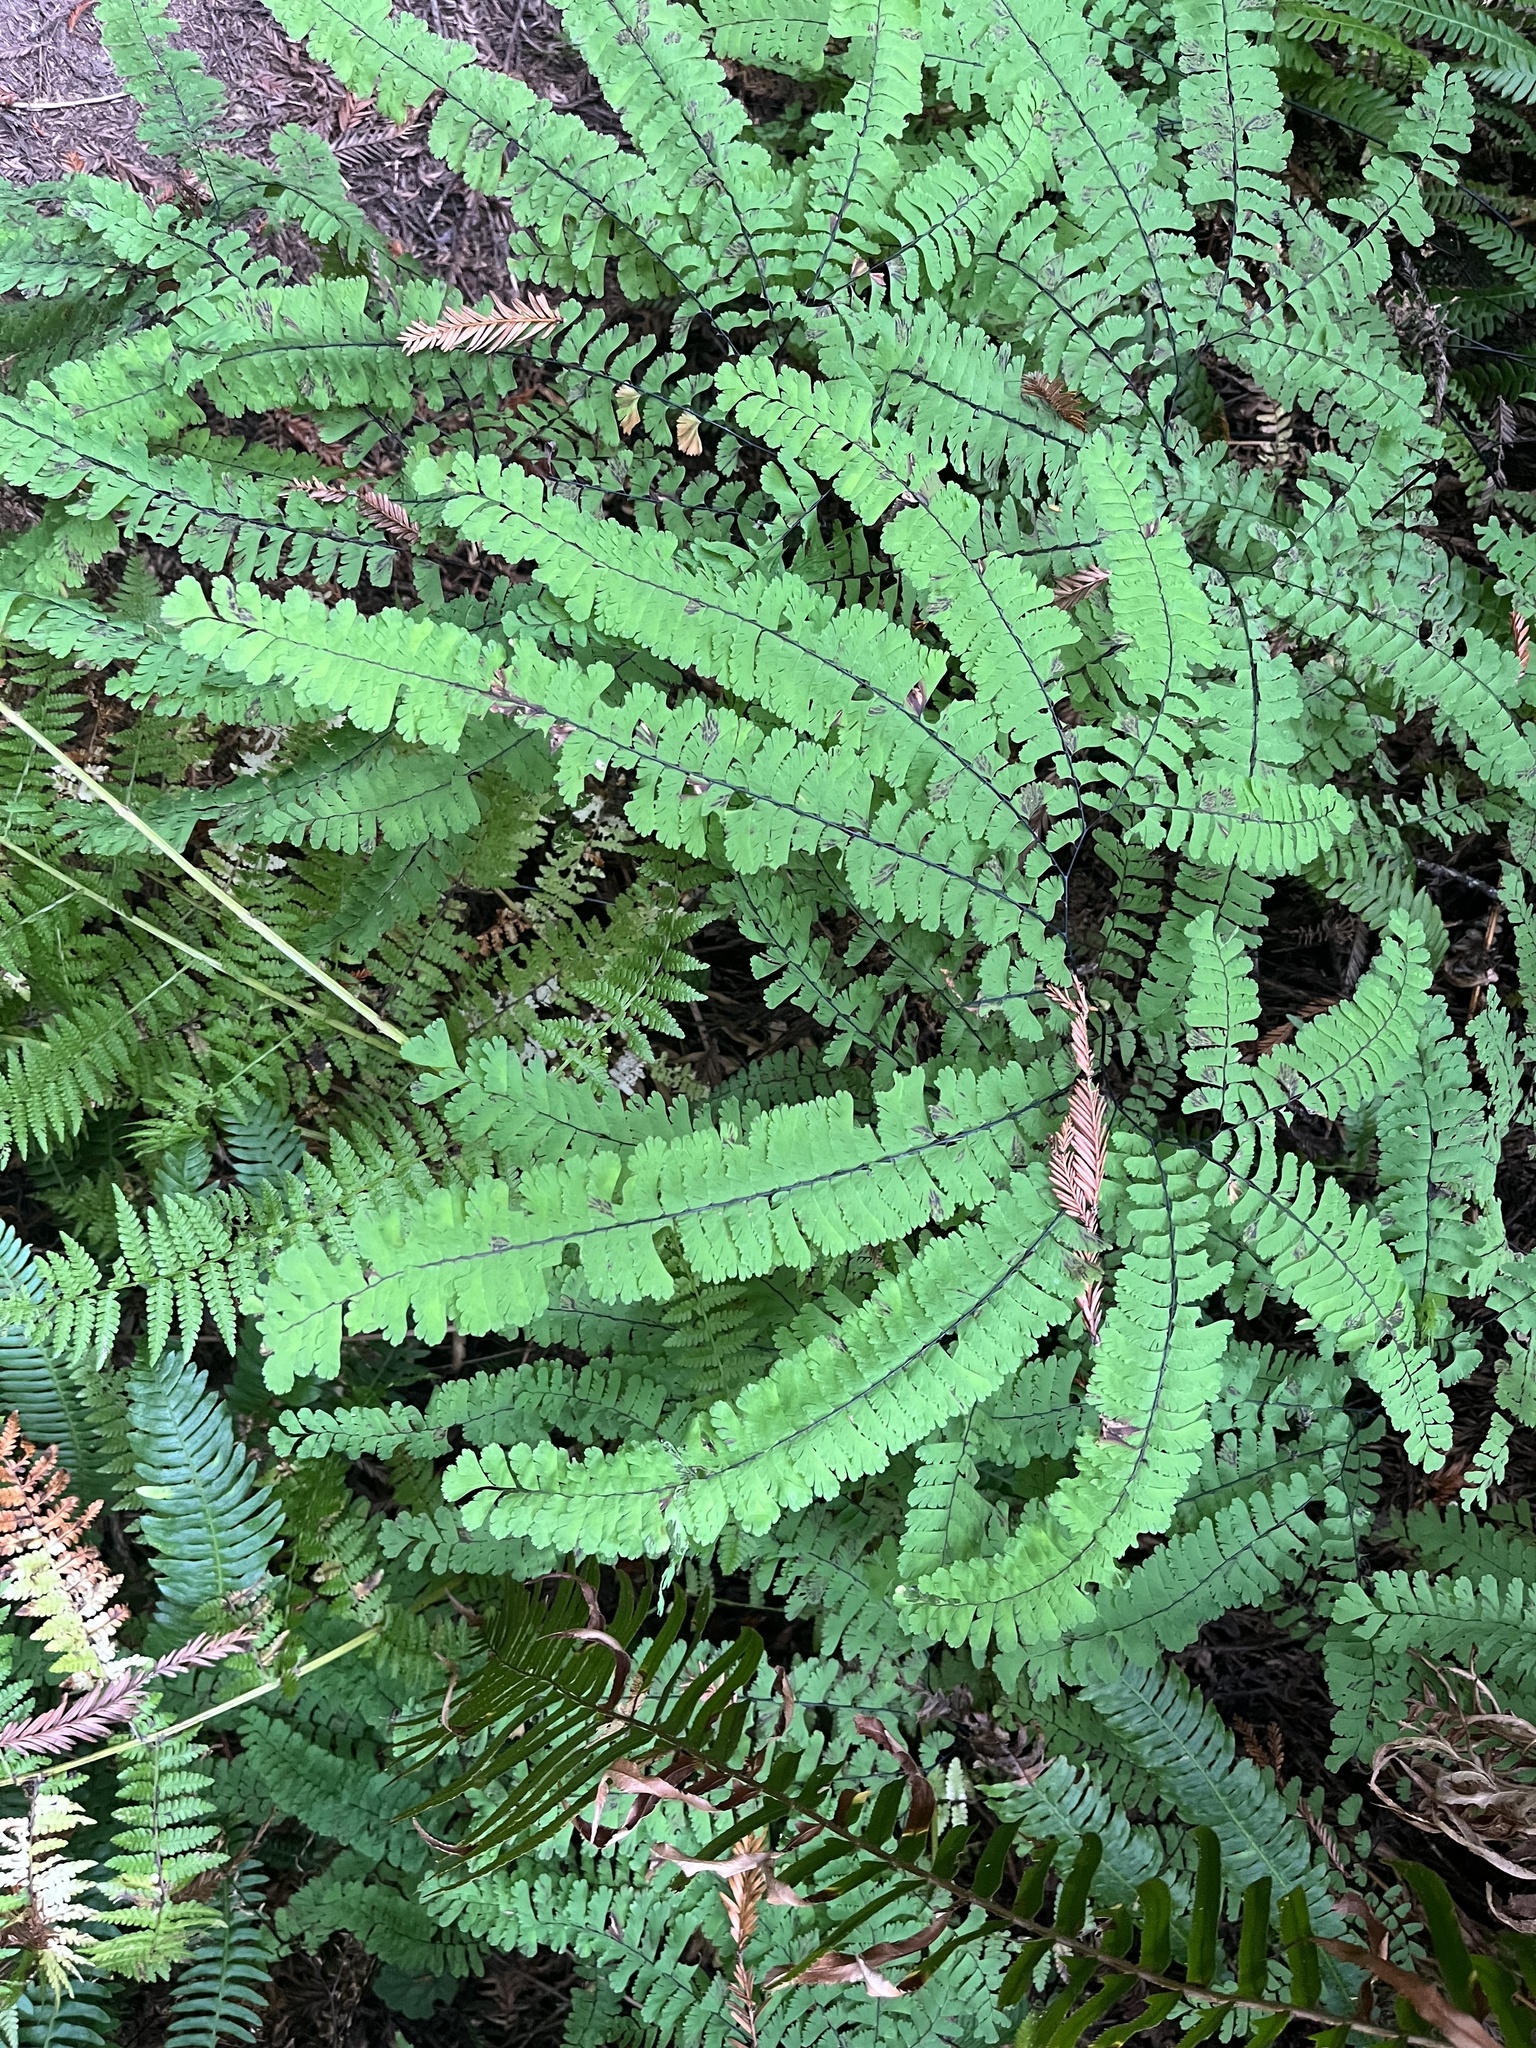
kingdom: Plantae
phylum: Tracheophyta
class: Polypodiopsida
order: Polypodiales
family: Pteridaceae
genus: Adiantum
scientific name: Adiantum aleuticum
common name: Aleutian maidenhair fern
